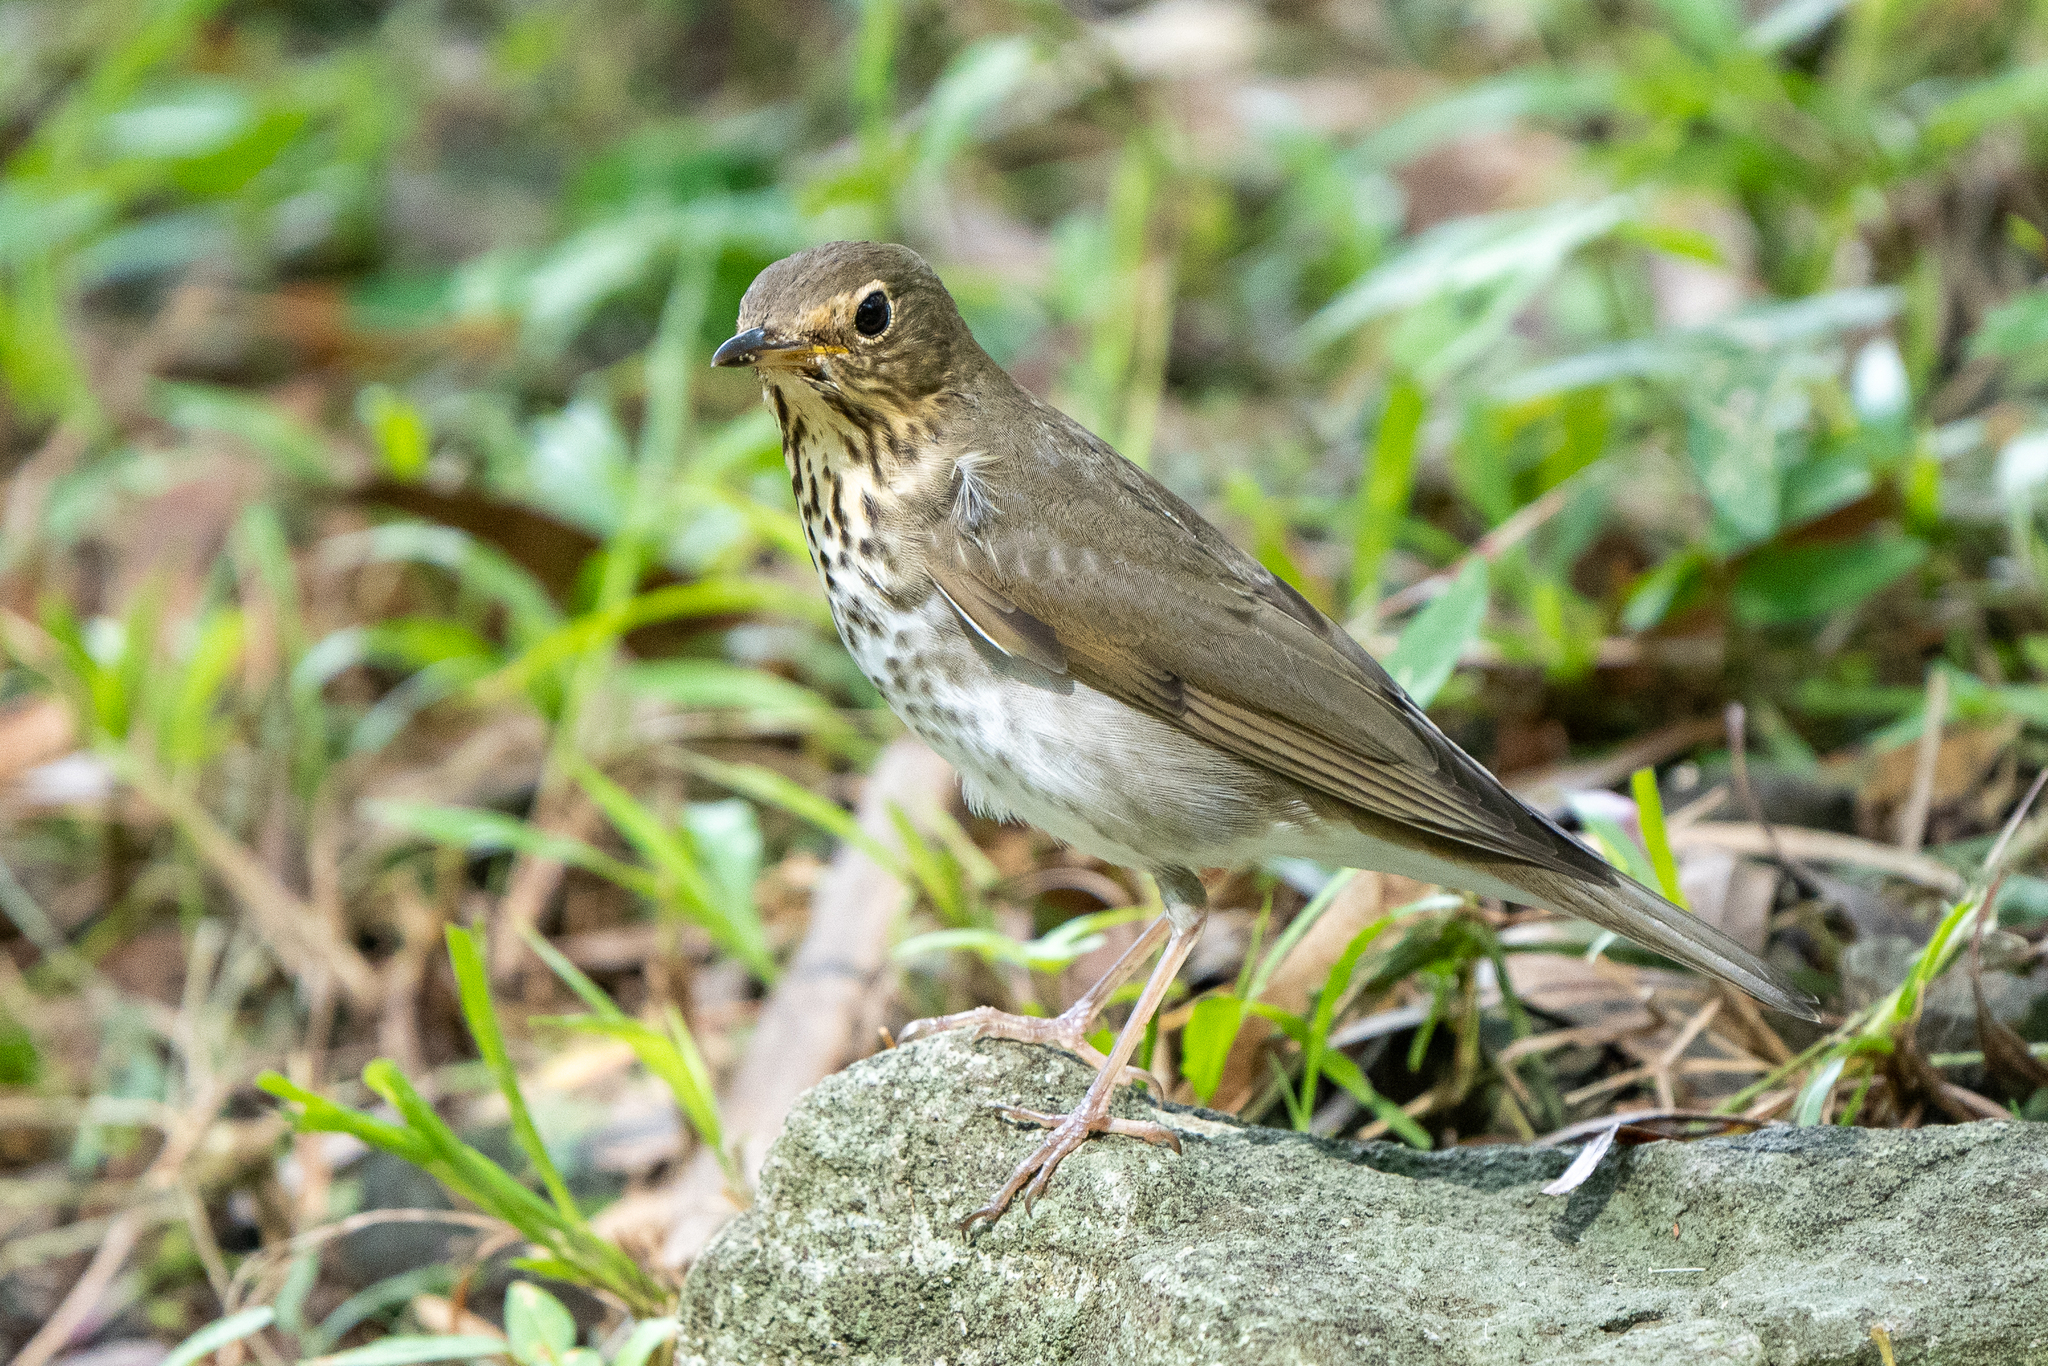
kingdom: Animalia
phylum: Chordata
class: Aves
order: Passeriformes
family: Turdidae
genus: Catharus
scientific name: Catharus ustulatus
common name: Swainson's thrush
